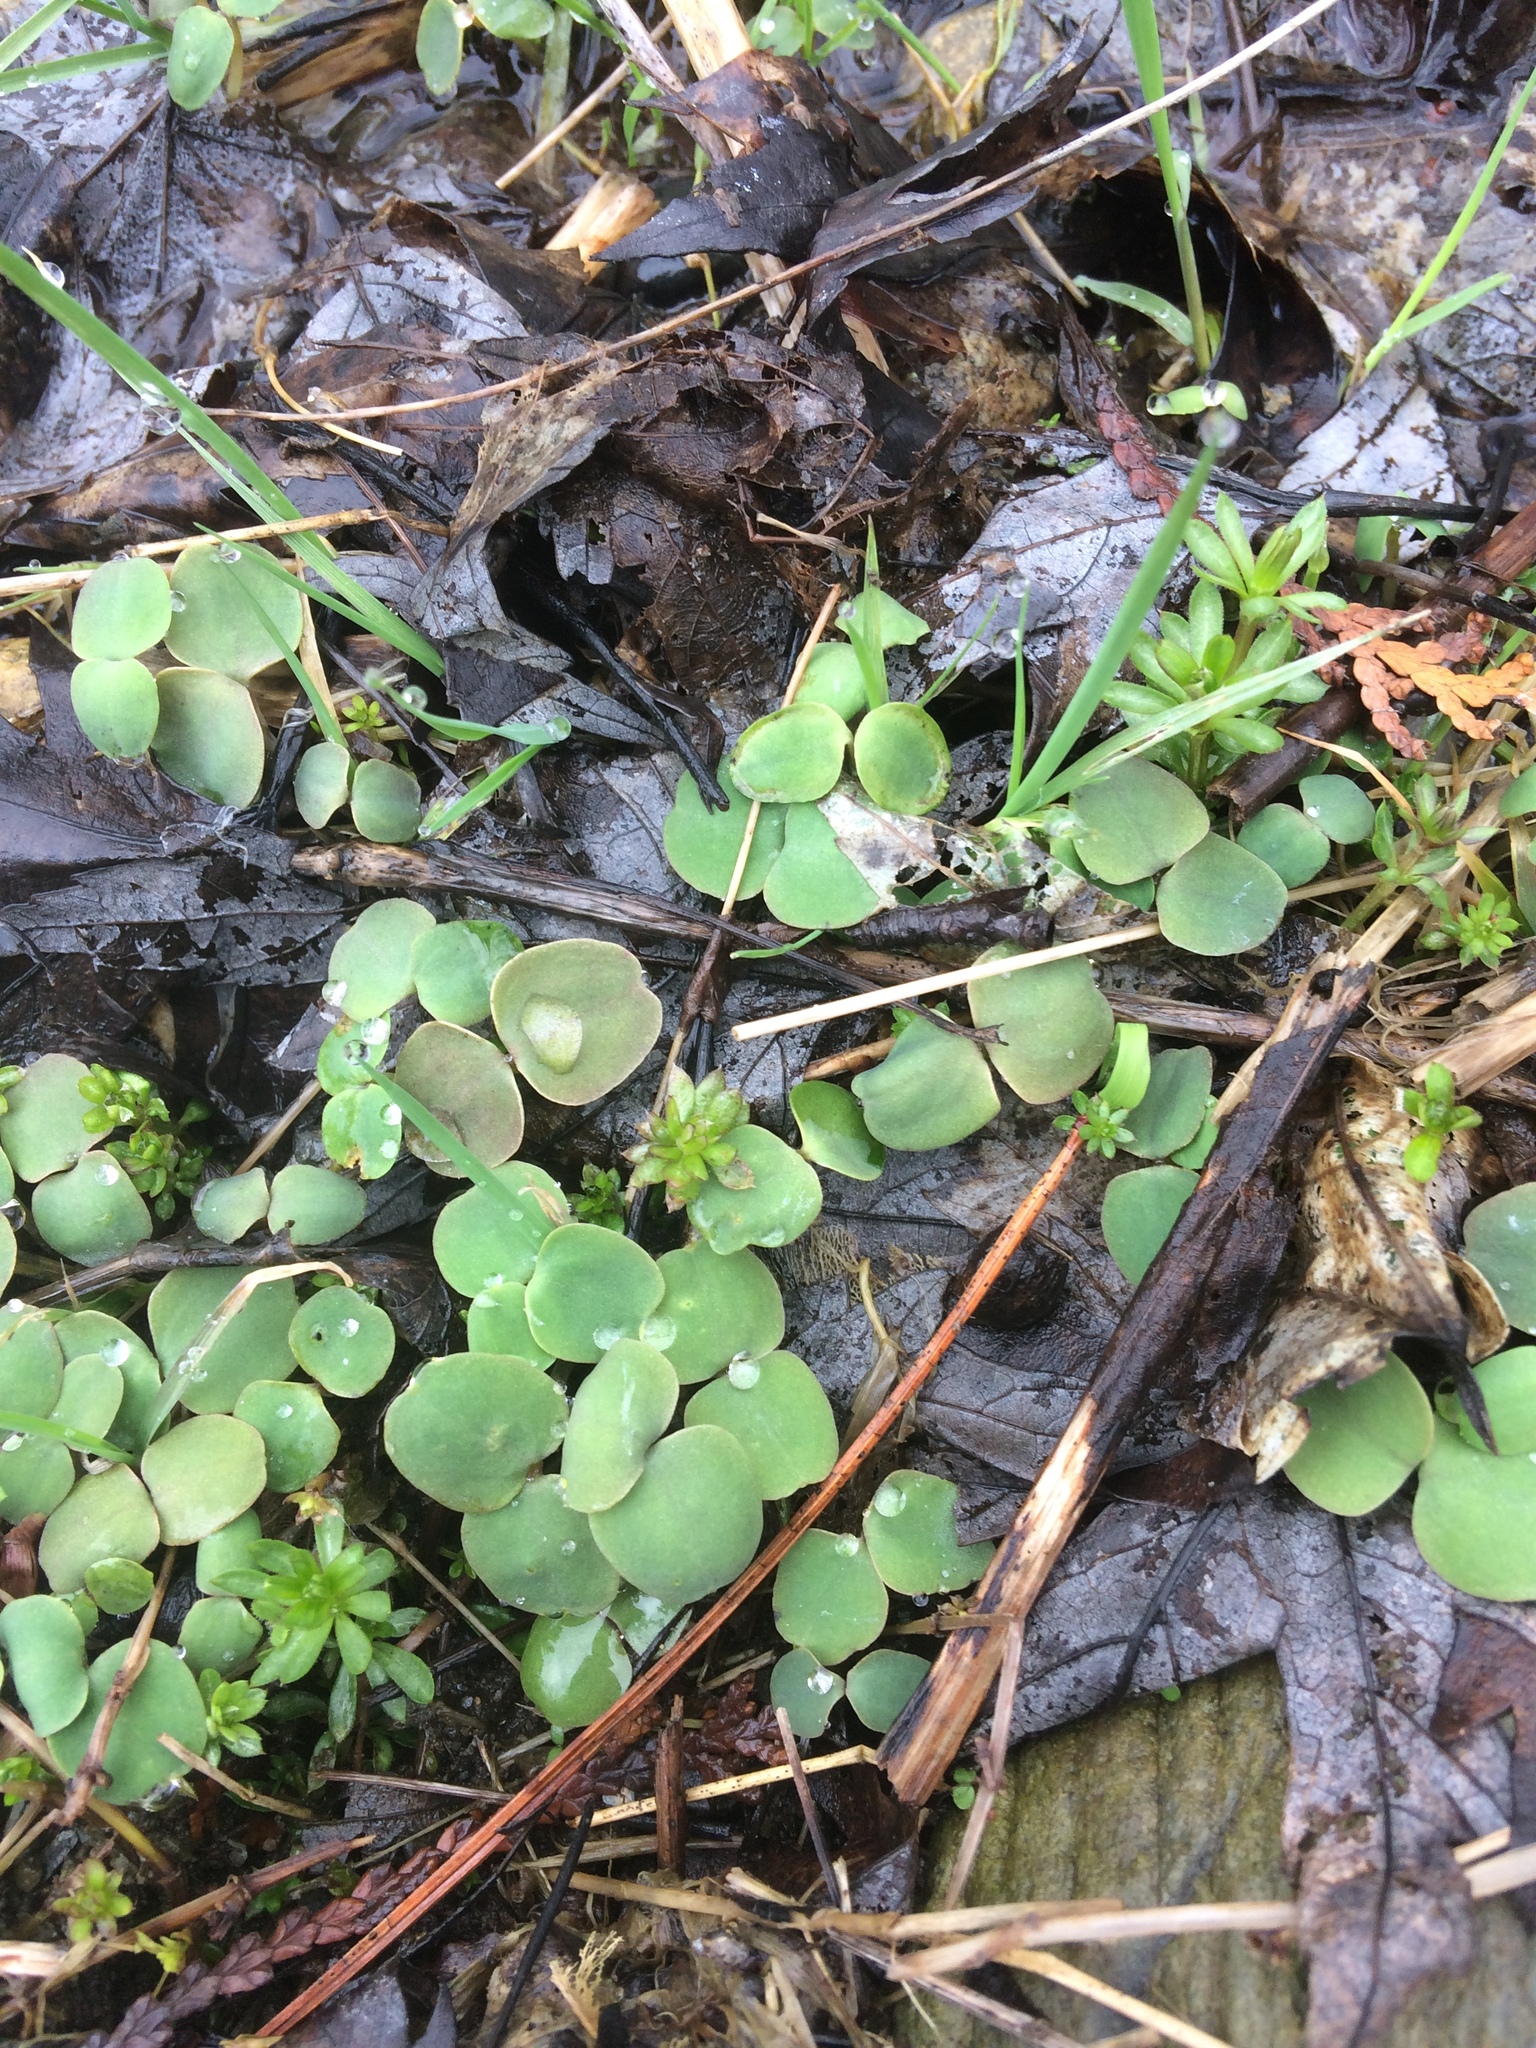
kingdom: Plantae
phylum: Tracheophyta
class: Magnoliopsida
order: Ericales
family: Balsaminaceae
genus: Impatiens
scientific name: Impatiens capensis
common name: Orange balsam
